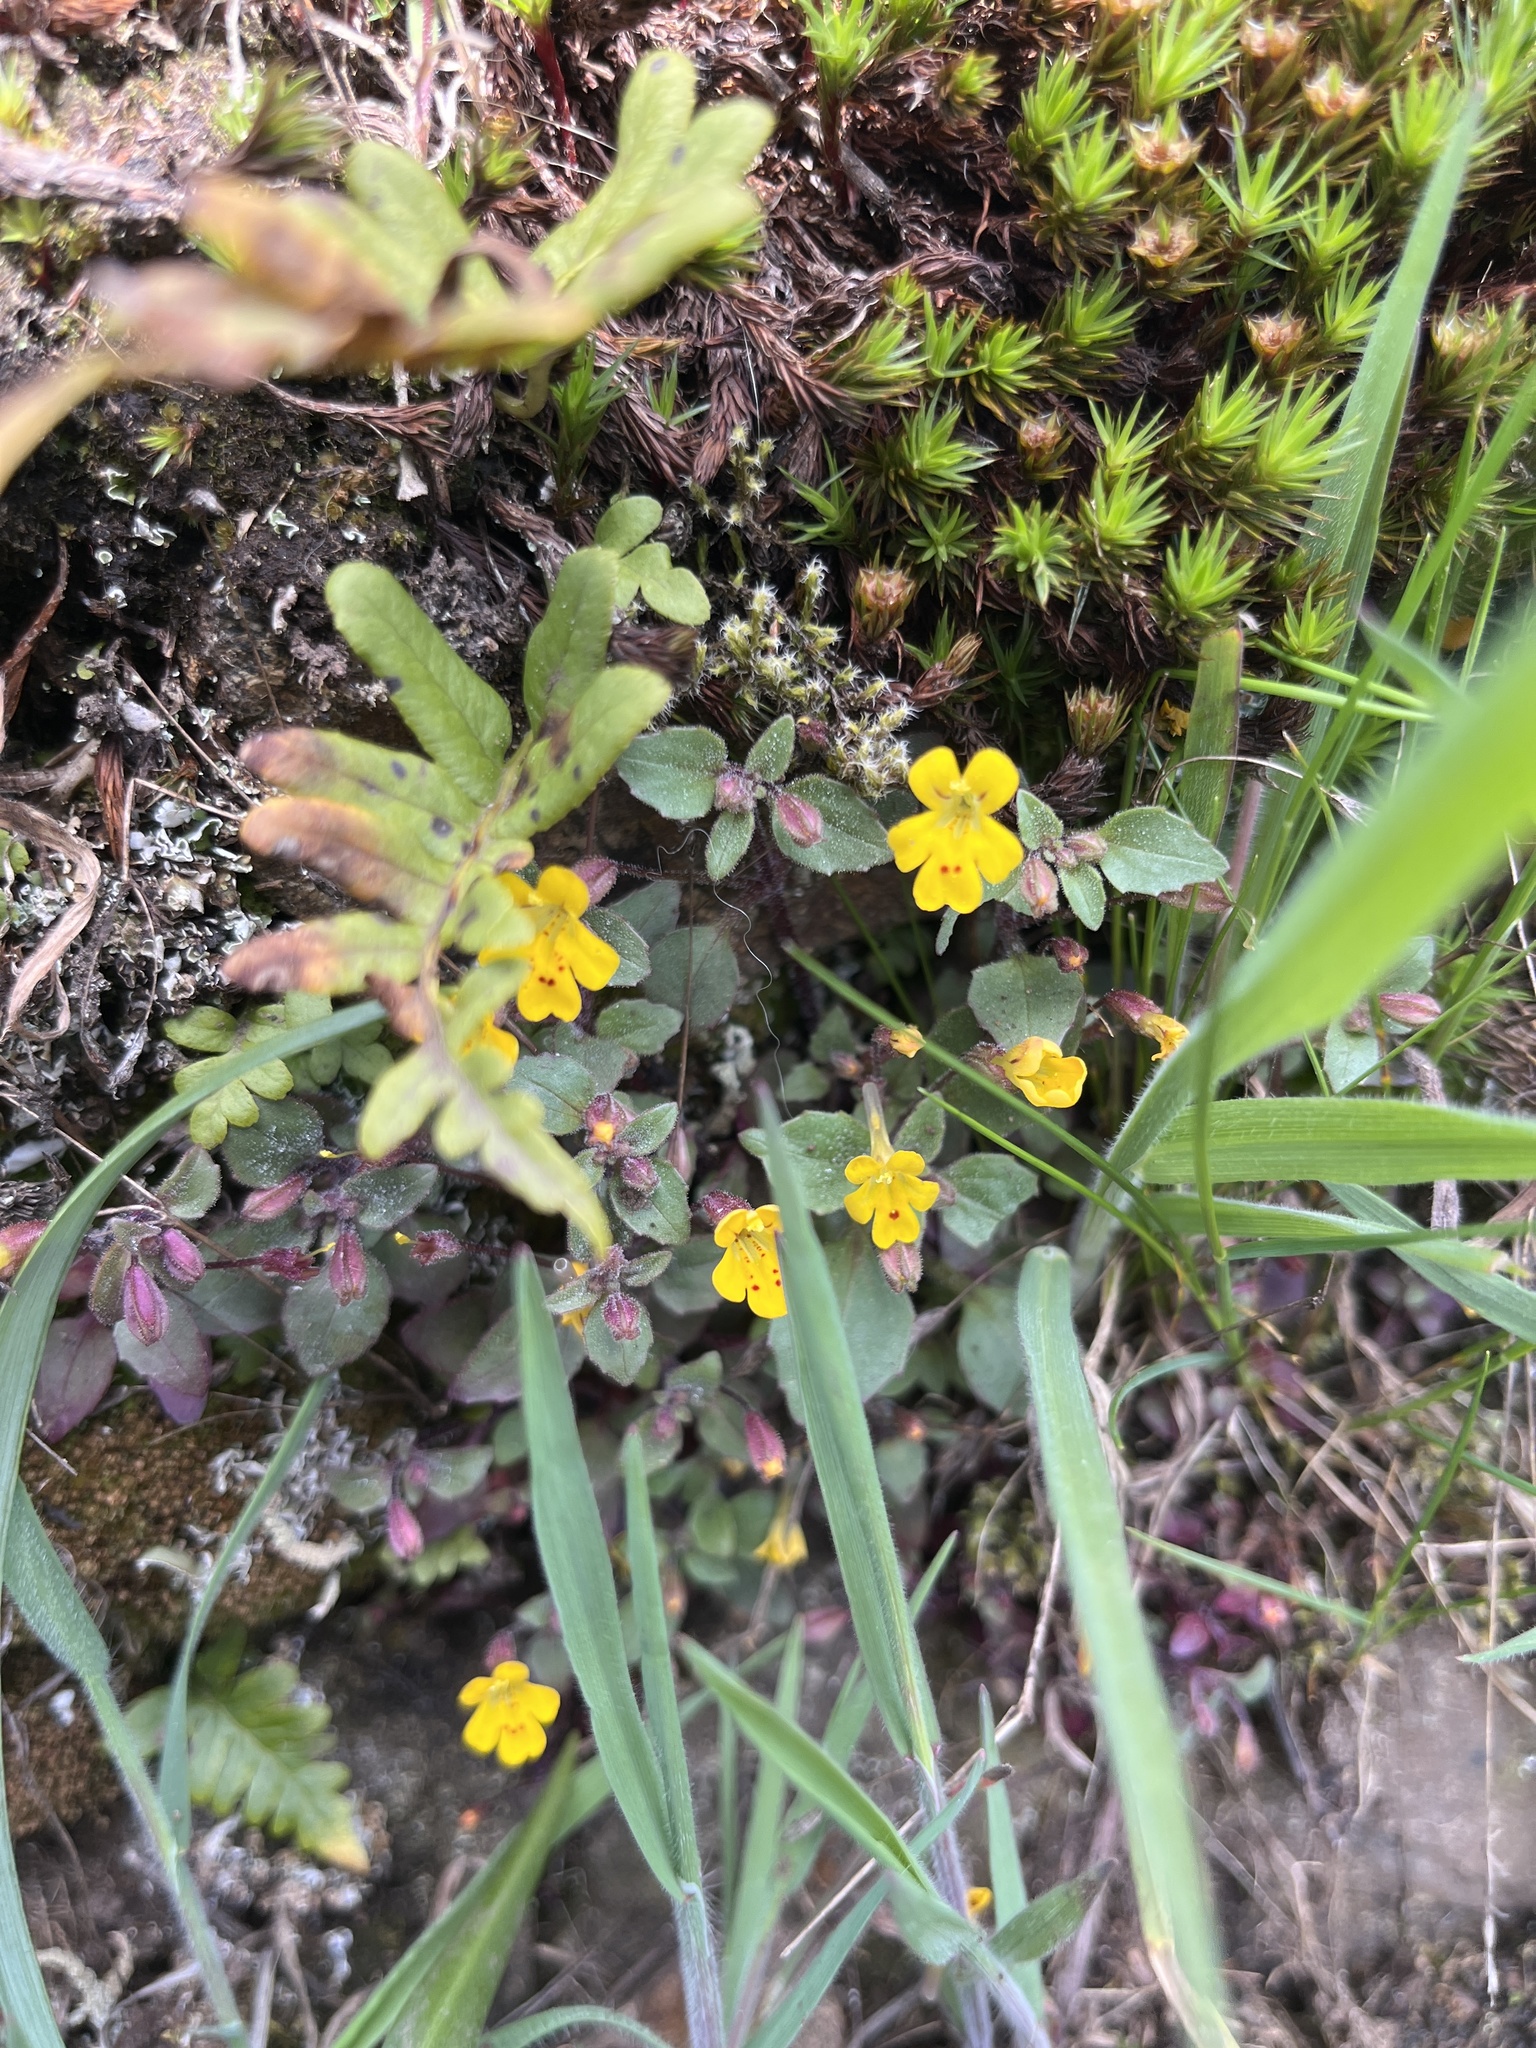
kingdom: Plantae
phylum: Tracheophyta
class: Magnoliopsida
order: Lamiales
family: Phrymaceae
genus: Erythranthe
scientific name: Erythranthe alsinoides
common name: Chickweed monkeyflower
